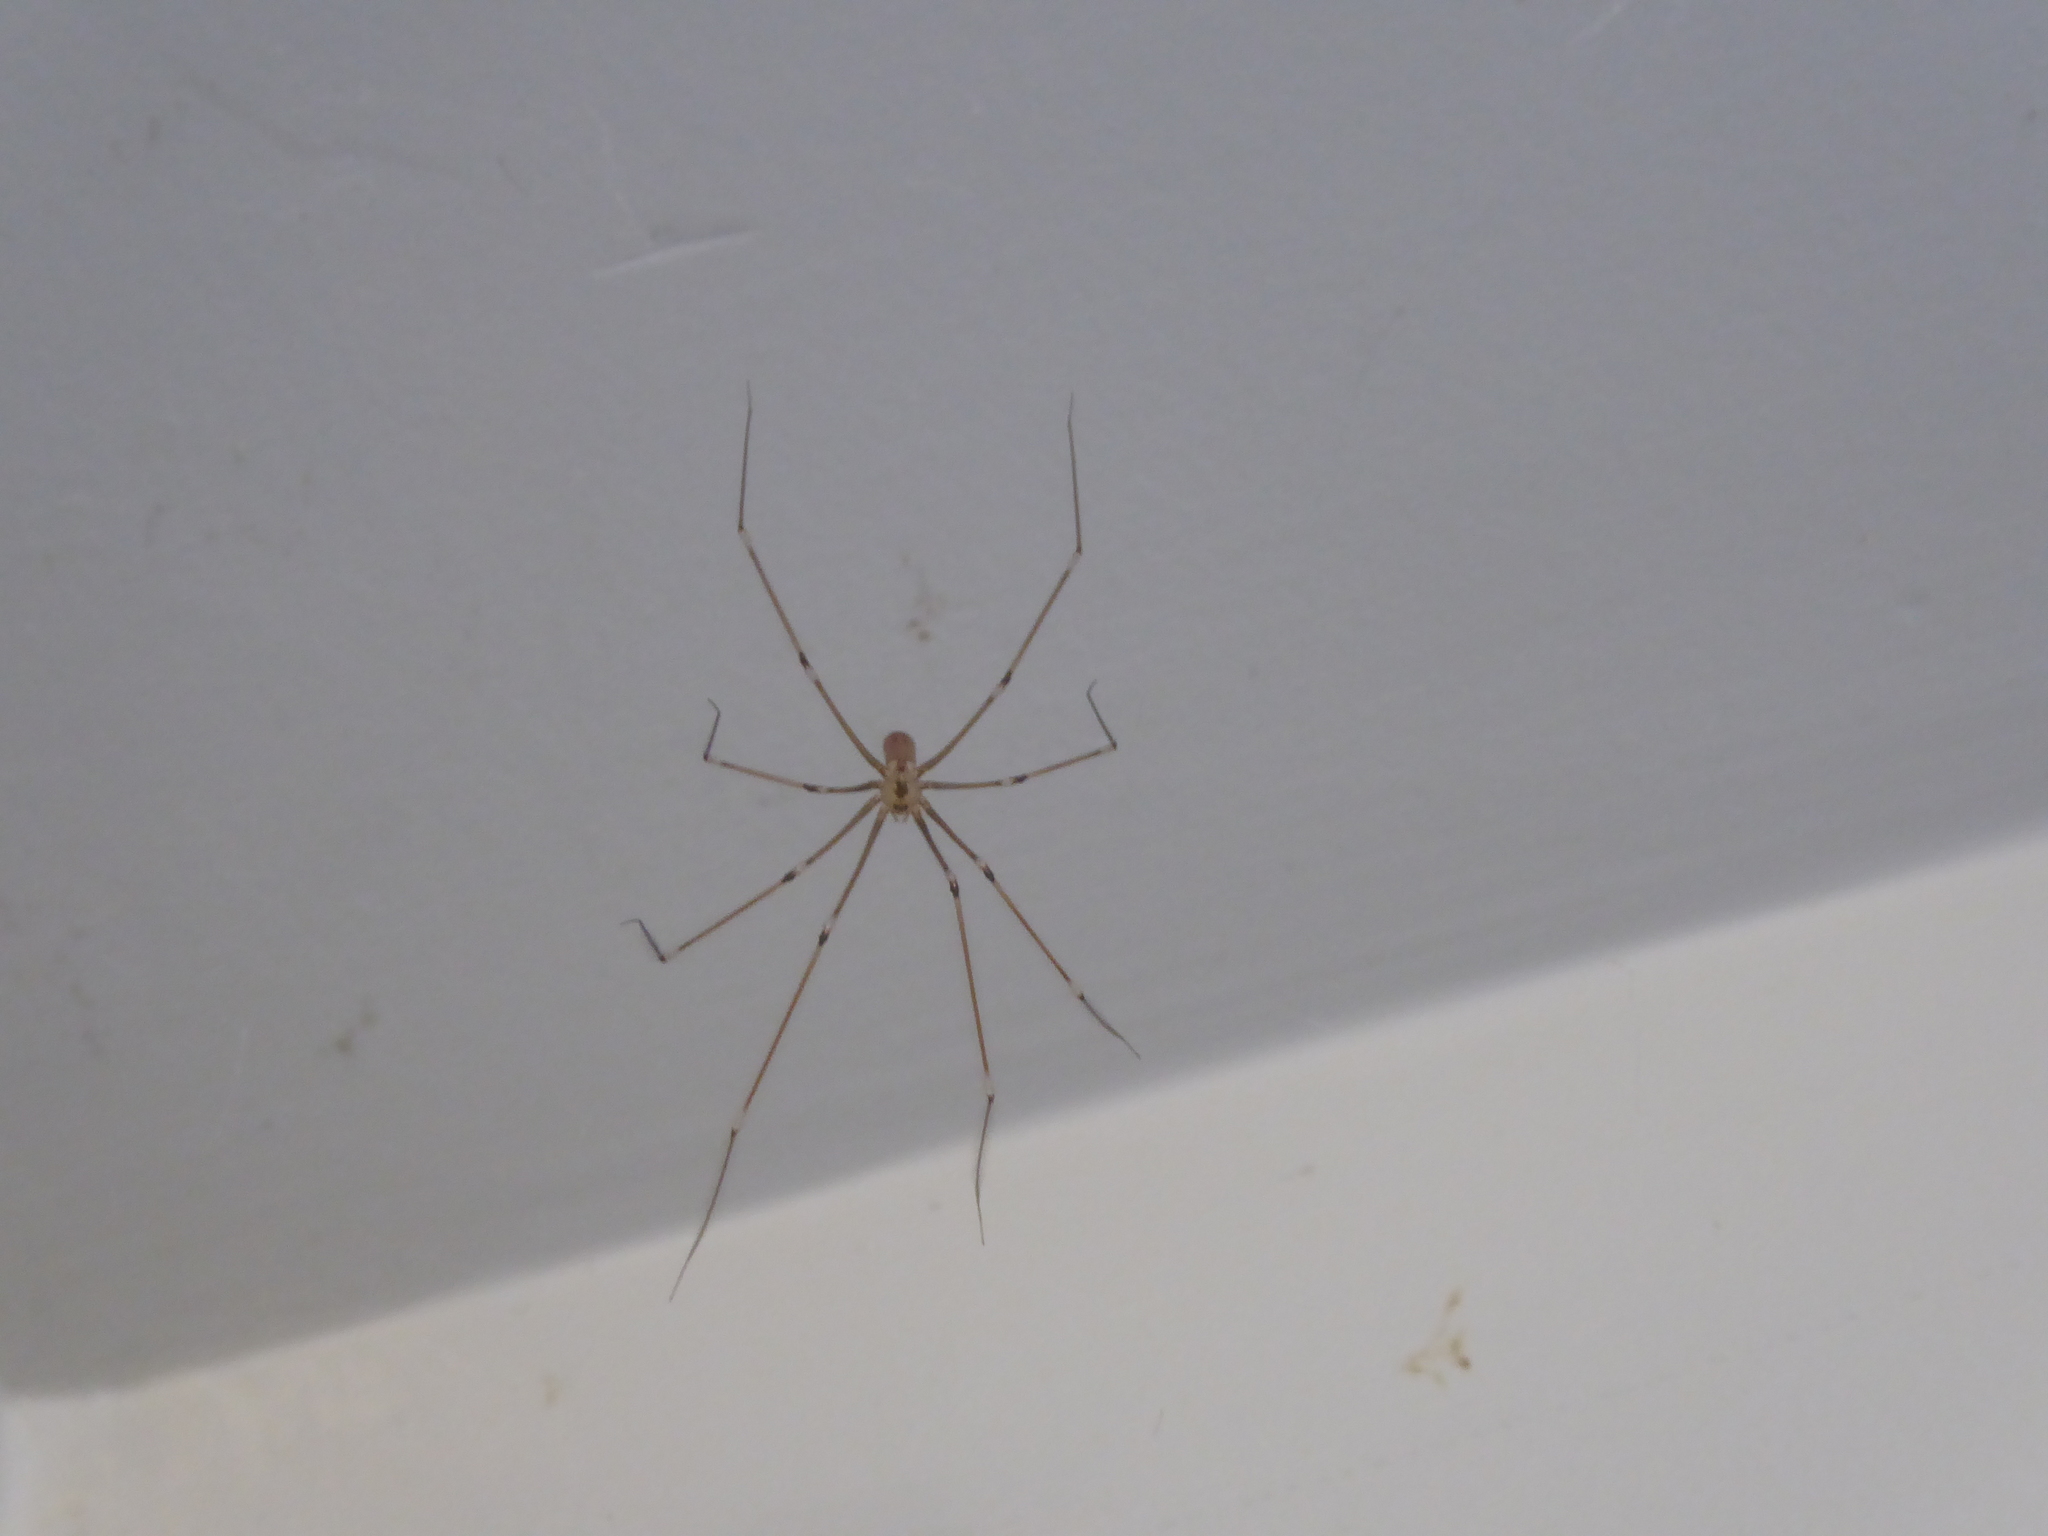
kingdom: Animalia
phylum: Arthropoda
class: Arachnida
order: Araneae
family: Pholcidae
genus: Pholcus
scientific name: Pholcus phalangioides
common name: Longbodied cellar spider
